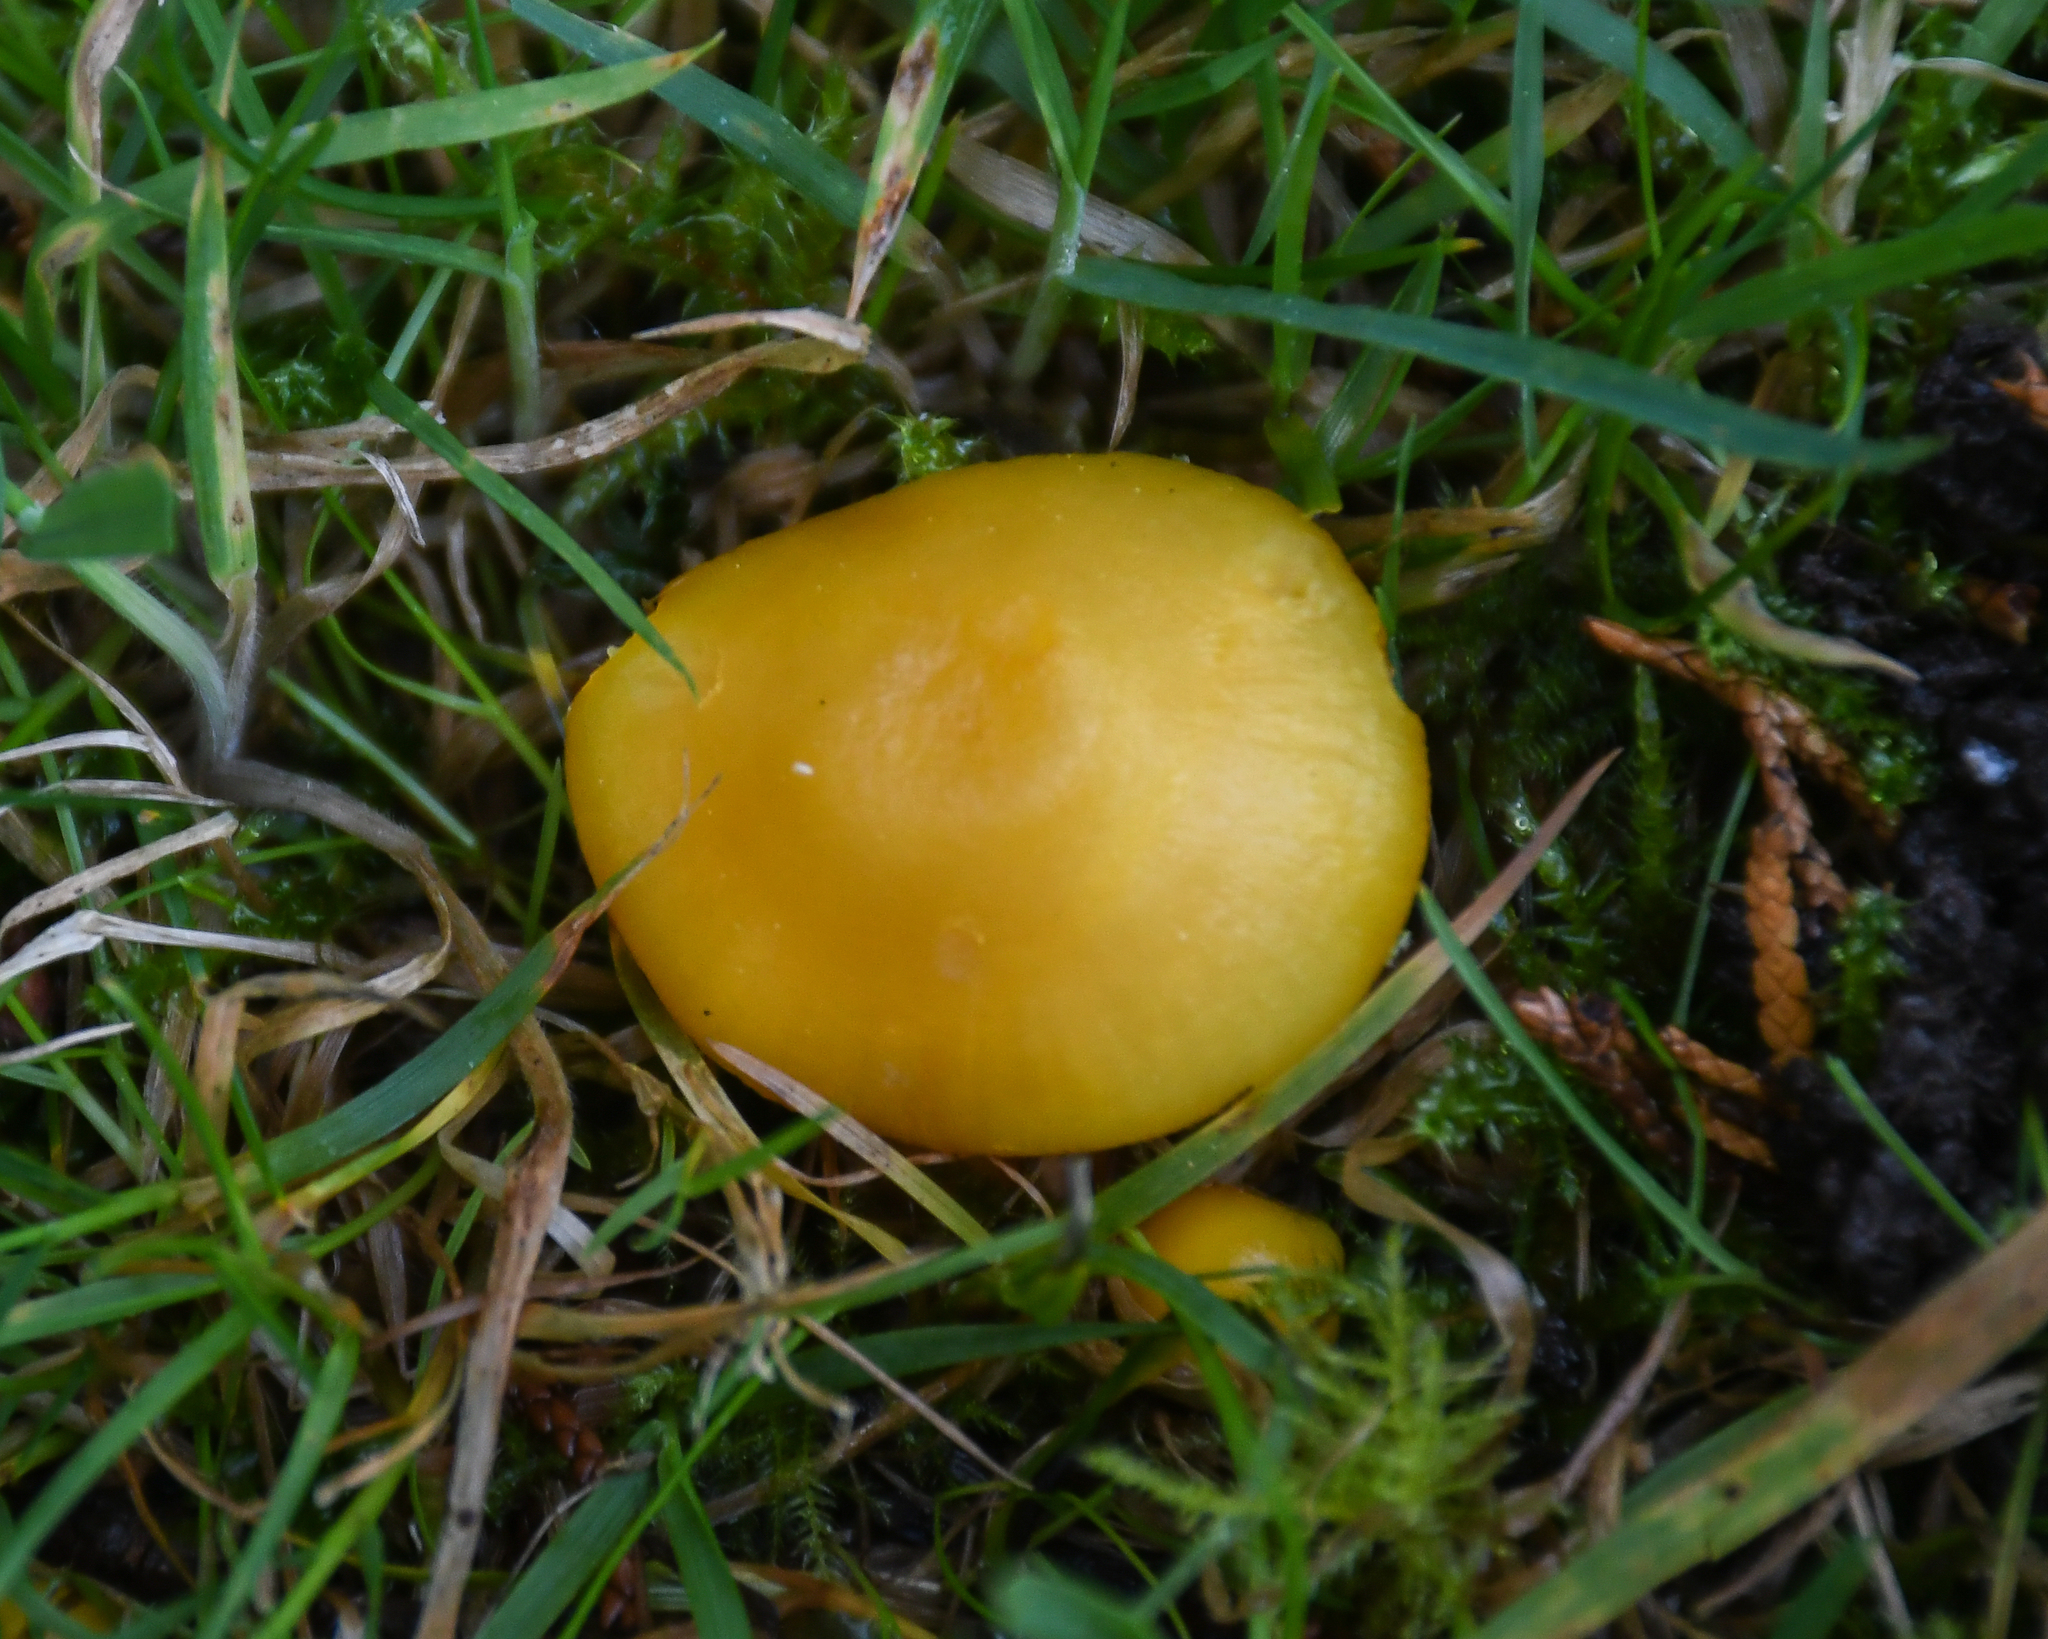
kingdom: Fungi
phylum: Basidiomycota
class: Agaricomycetes
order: Agaricales
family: Hygrophoraceae
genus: Hygrocybe
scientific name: Hygrocybe ceracea
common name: Butter waxcap
